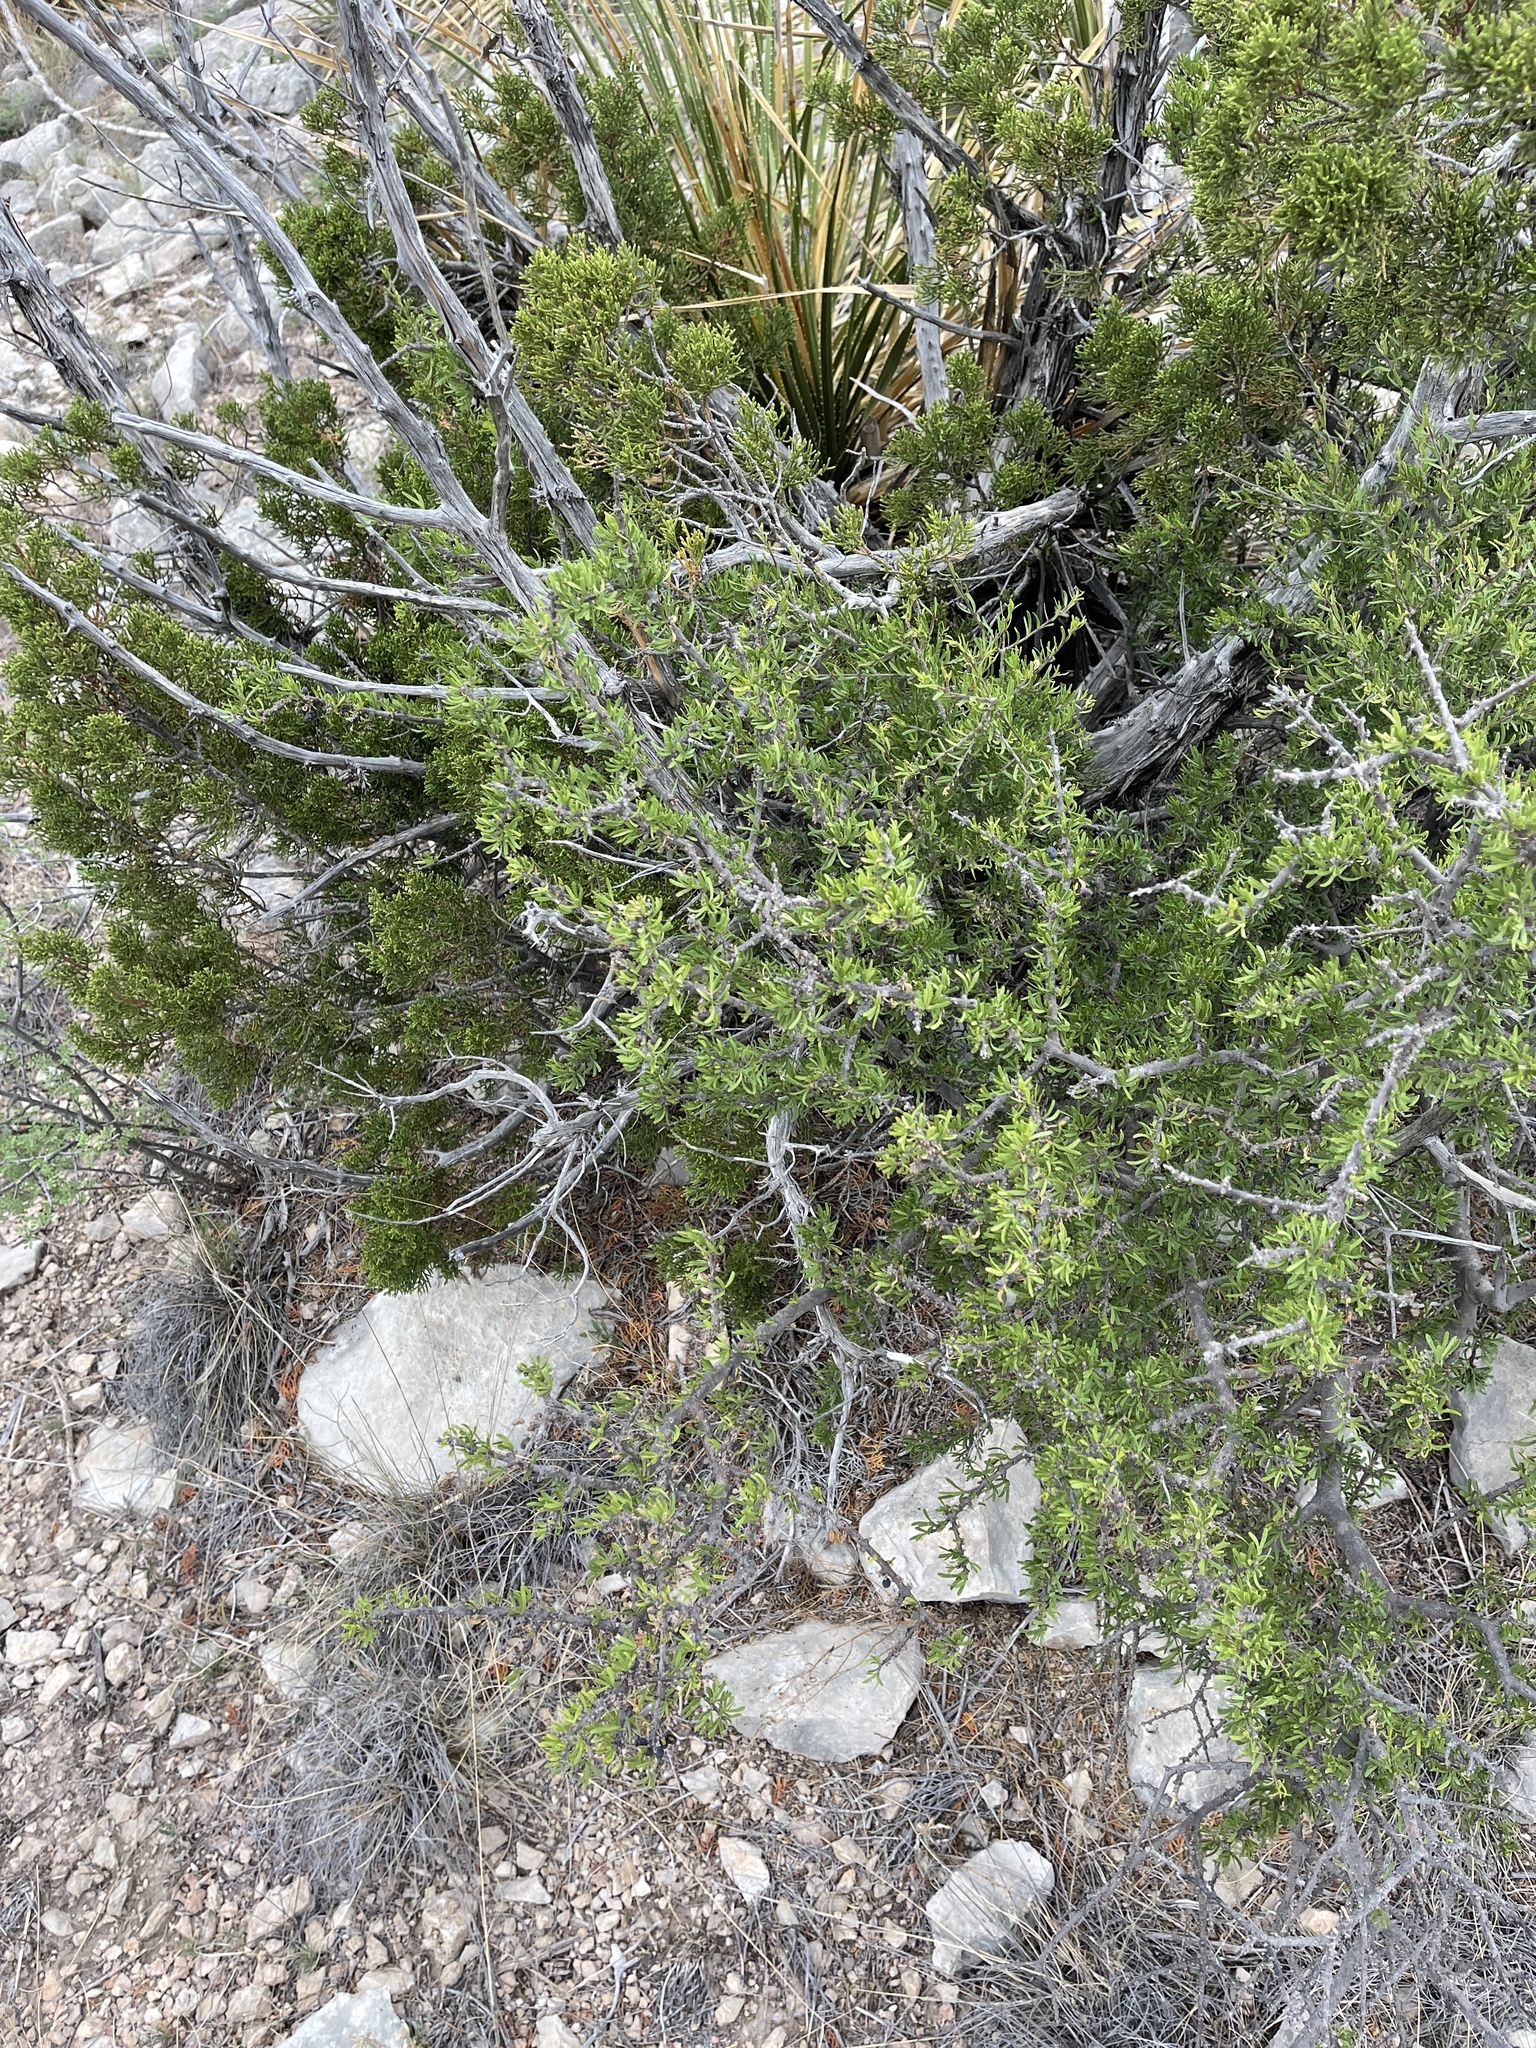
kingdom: Plantae
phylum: Tracheophyta
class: Magnoliopsida
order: Lamiales
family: Oleaceae
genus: Forestiera
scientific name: Forestiera angustifolia
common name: Elbowbush
